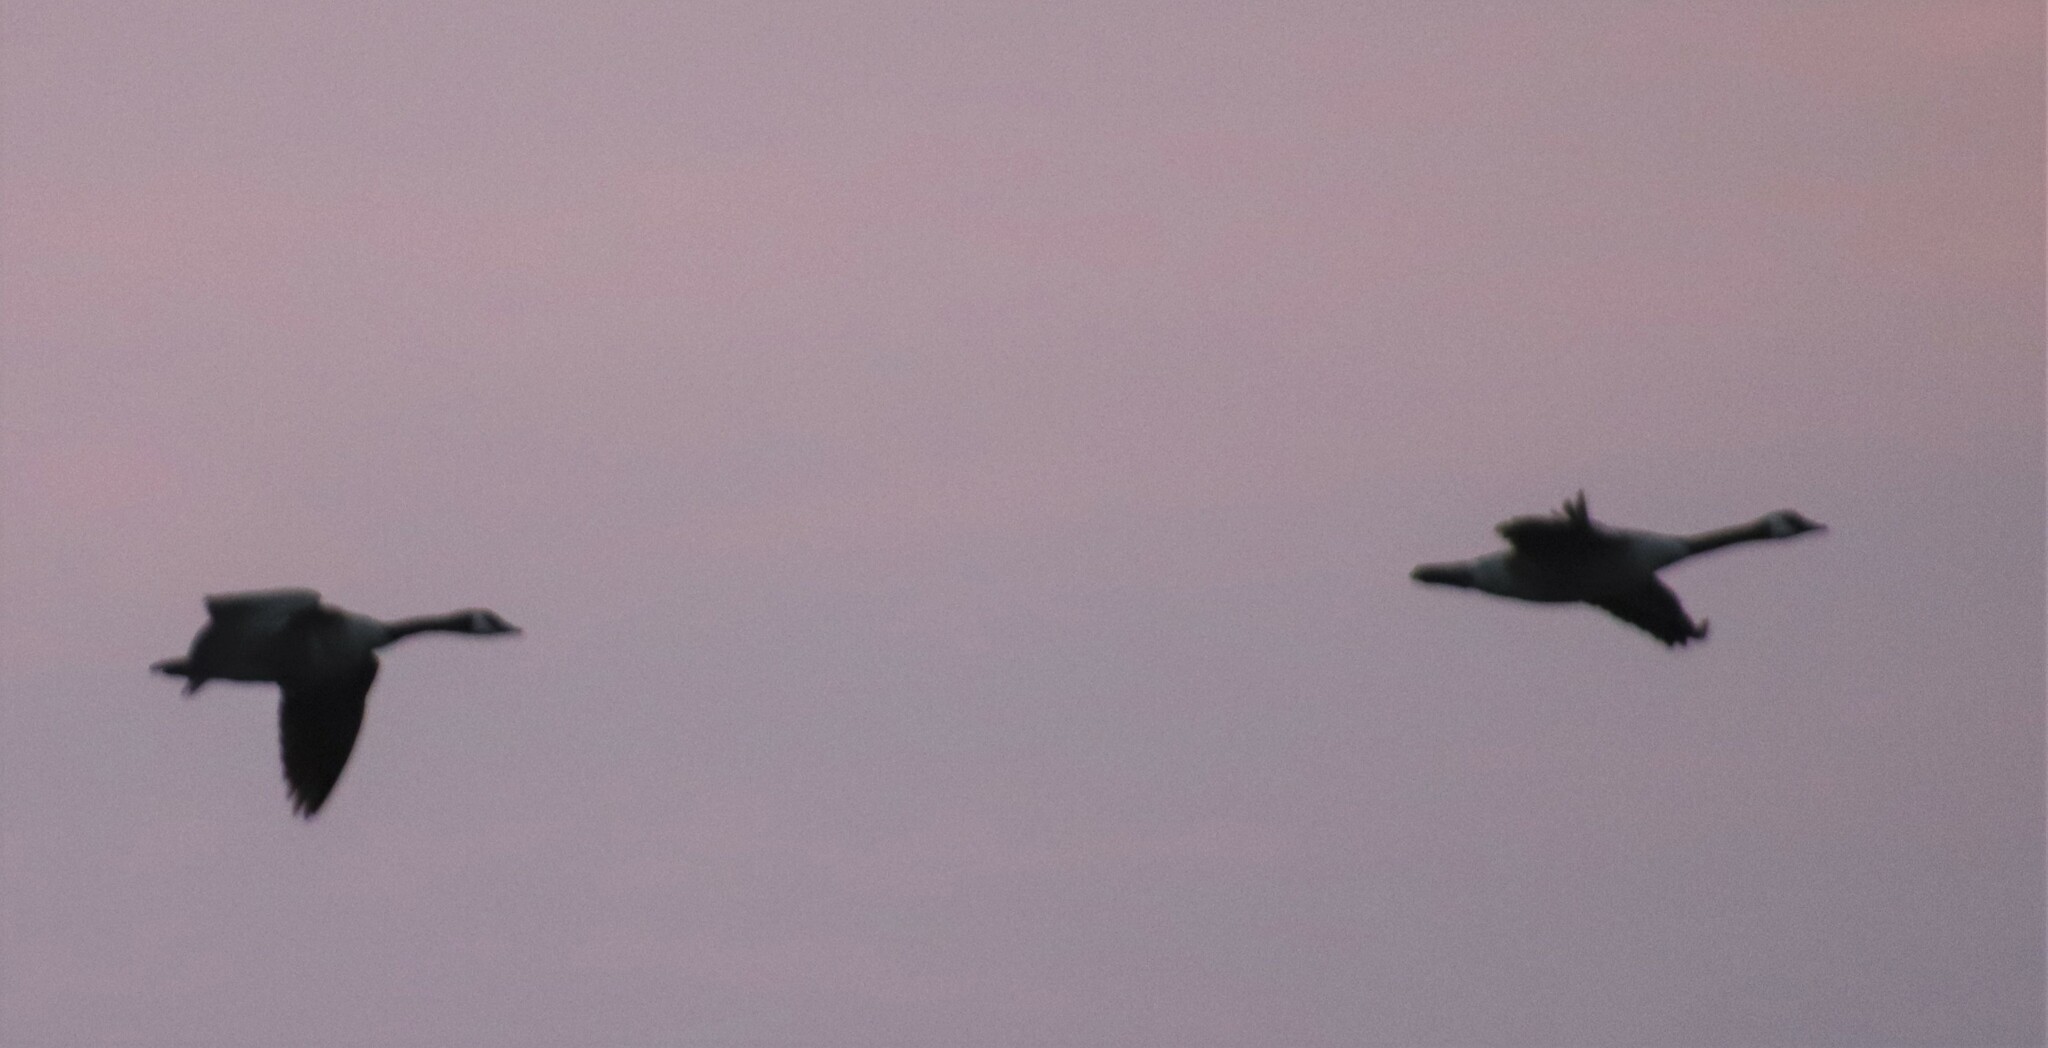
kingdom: Animalia
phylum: Chordata
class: Aves
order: Anseriformes
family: Anatidae
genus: Branta
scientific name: Branta canadensis
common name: Canada goose
